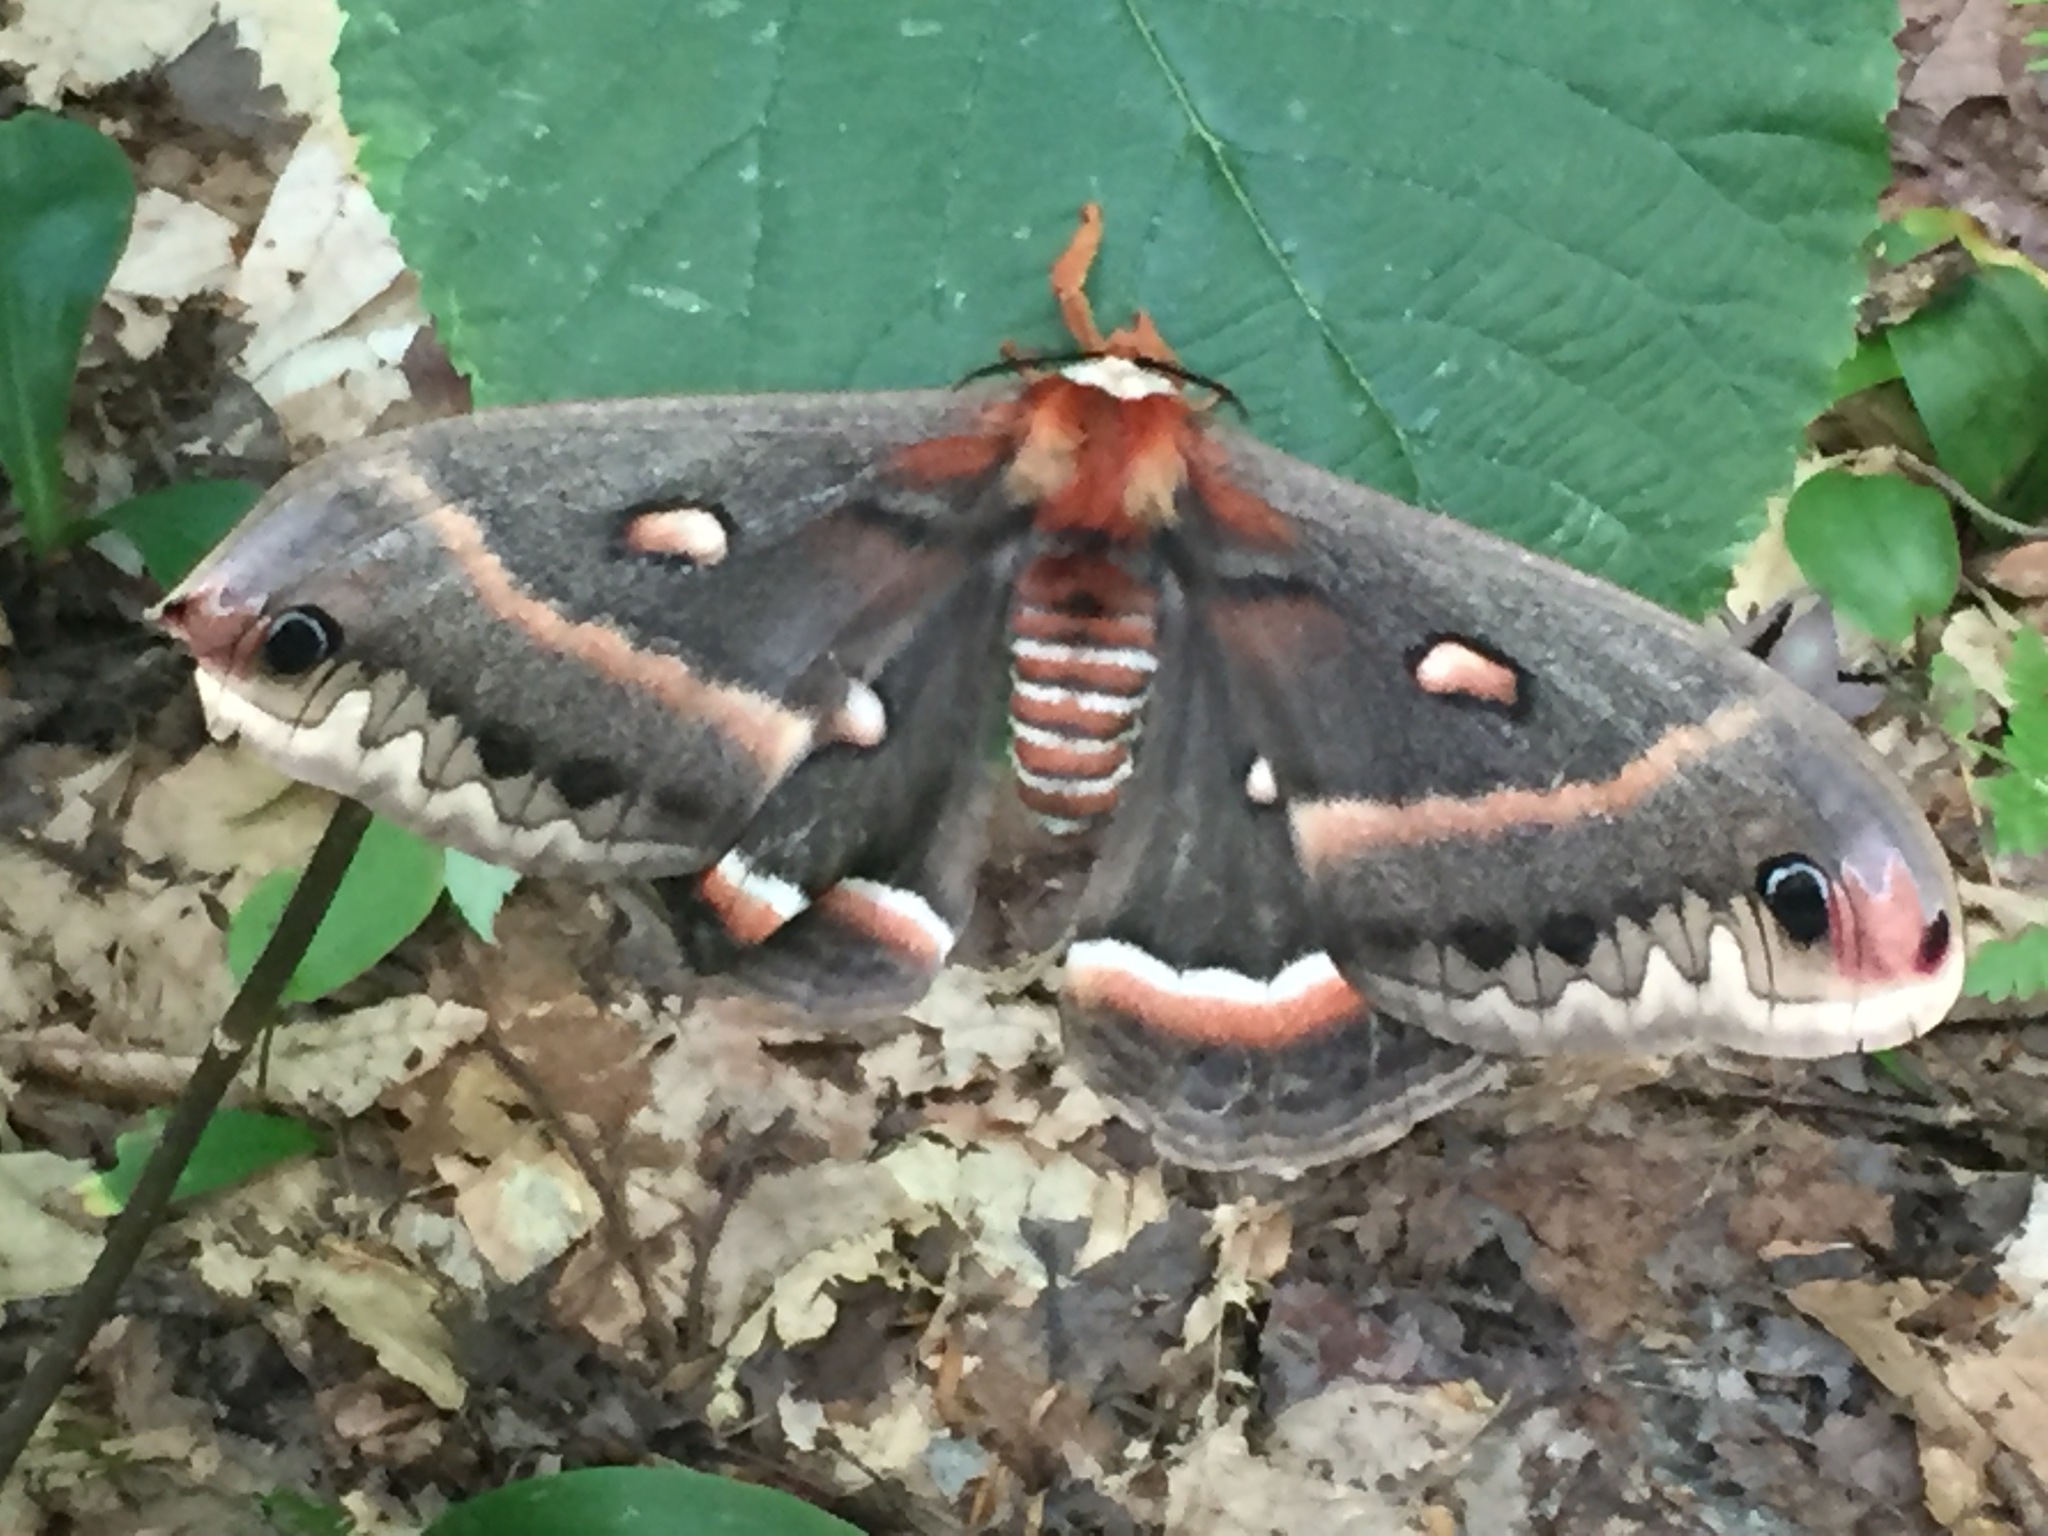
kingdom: Animalia
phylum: Arthropoda
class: Insecta
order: Lepidoptera
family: Saturniidae
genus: Hyalophora
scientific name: Hyalophora cecropia
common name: Cecropia silkmoth
